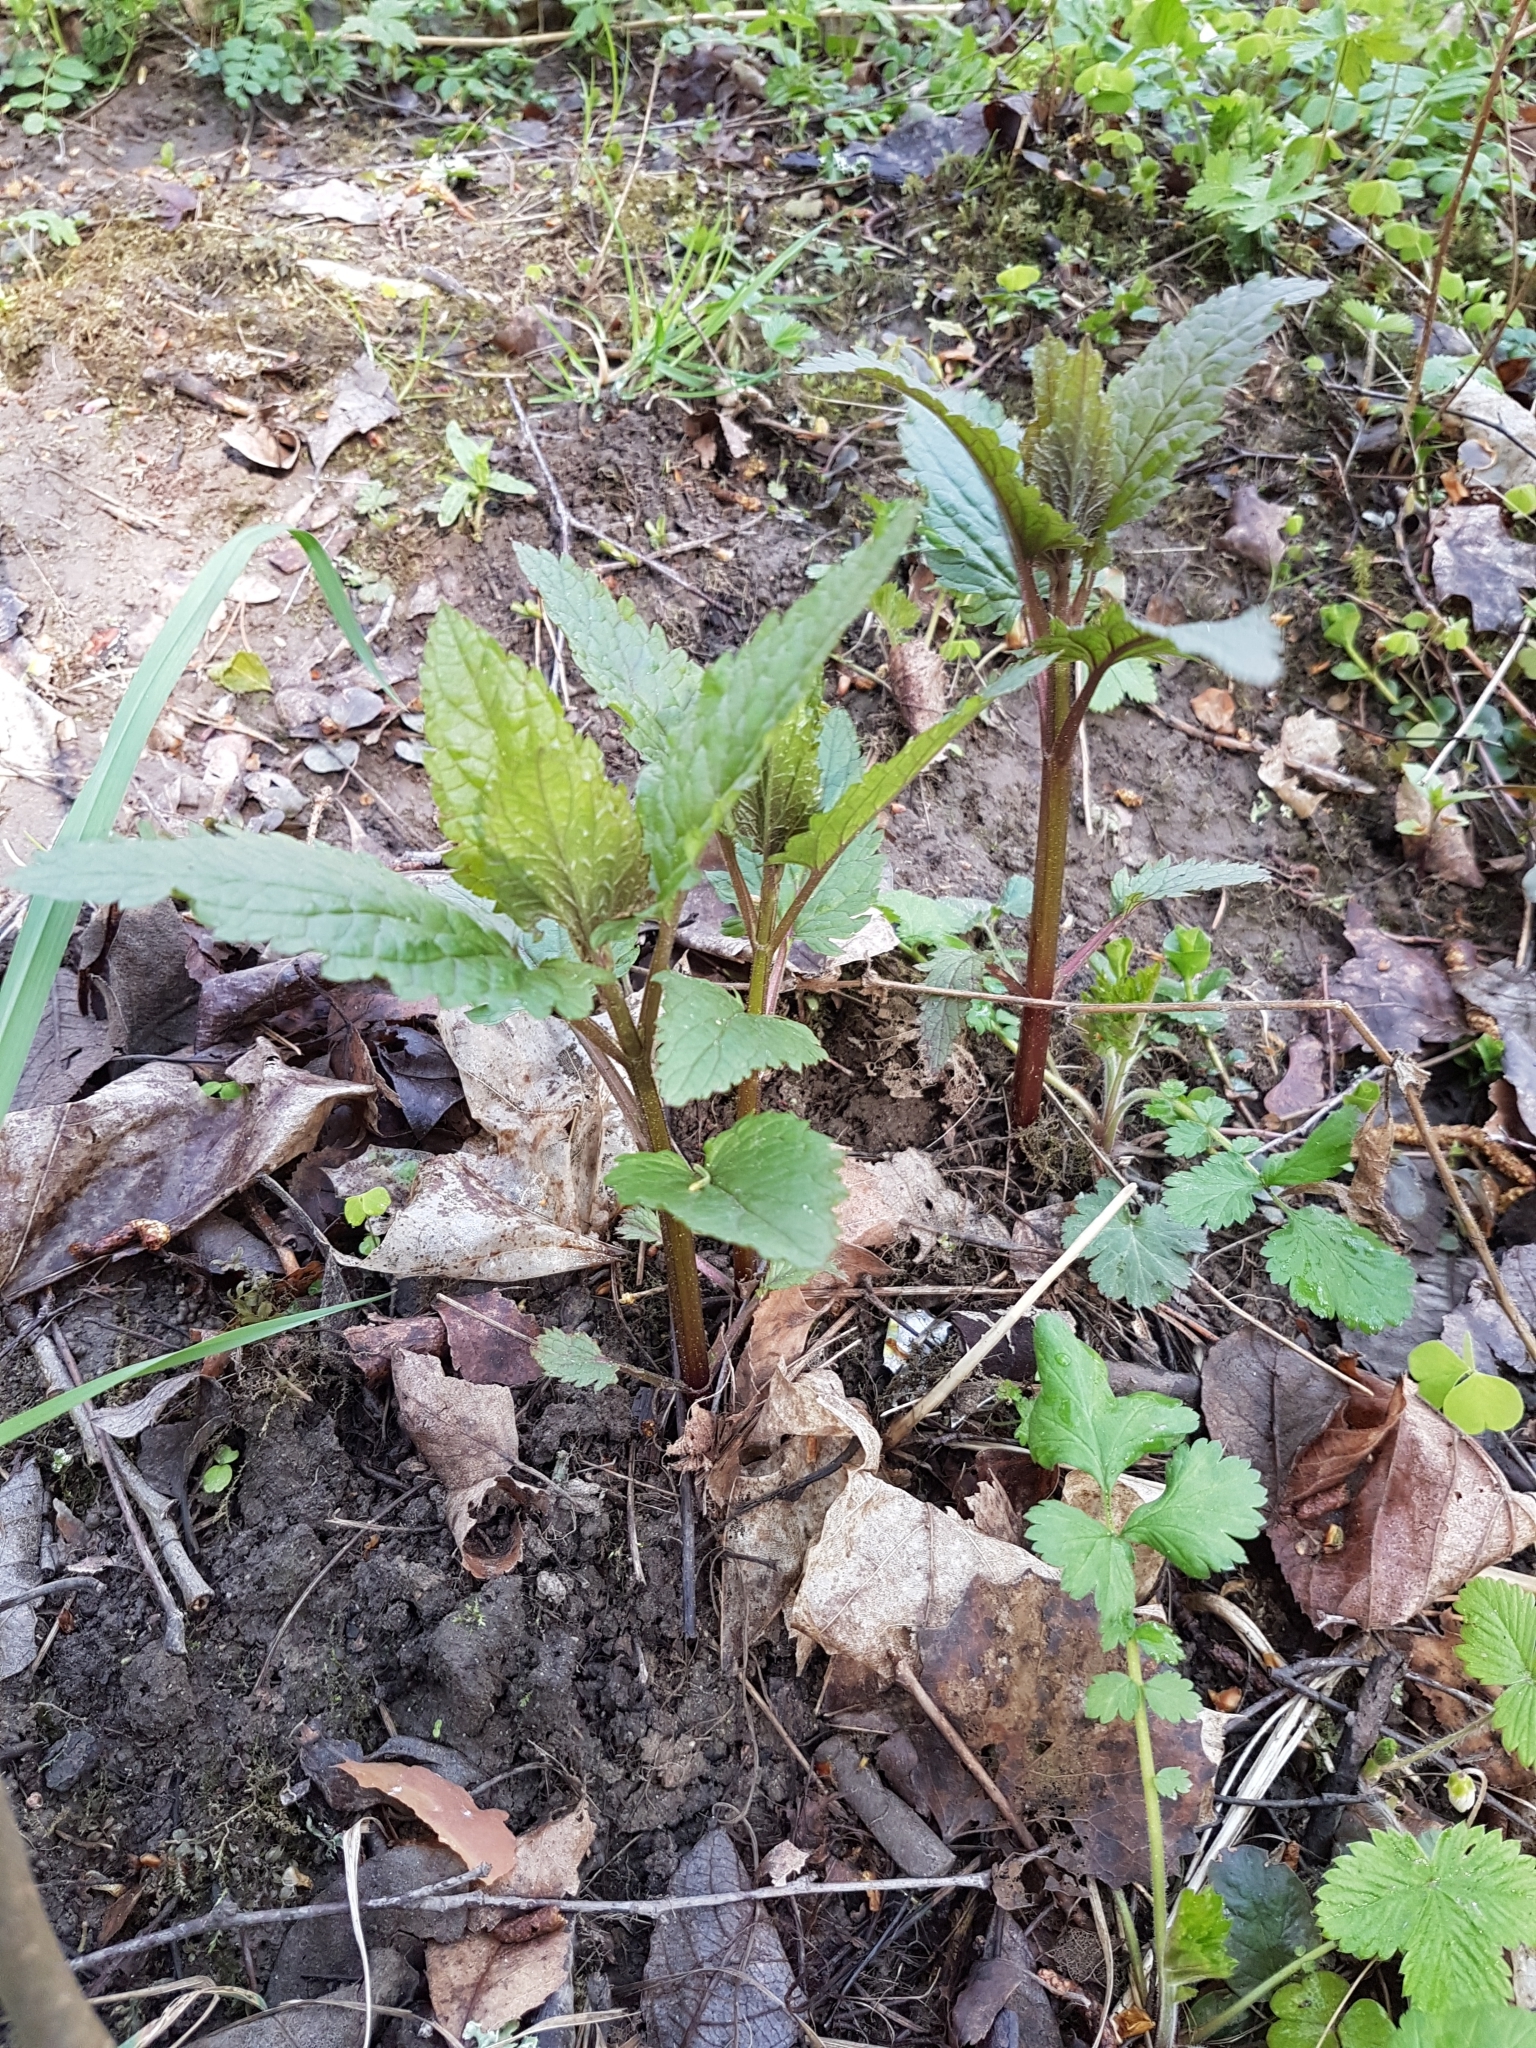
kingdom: Plantae
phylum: Tracheophyta
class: Magnoliopsida
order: Lamiales
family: Scrophulariaceae
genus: Scrophularia
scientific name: Scrophularia nodosa
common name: Common figwort
